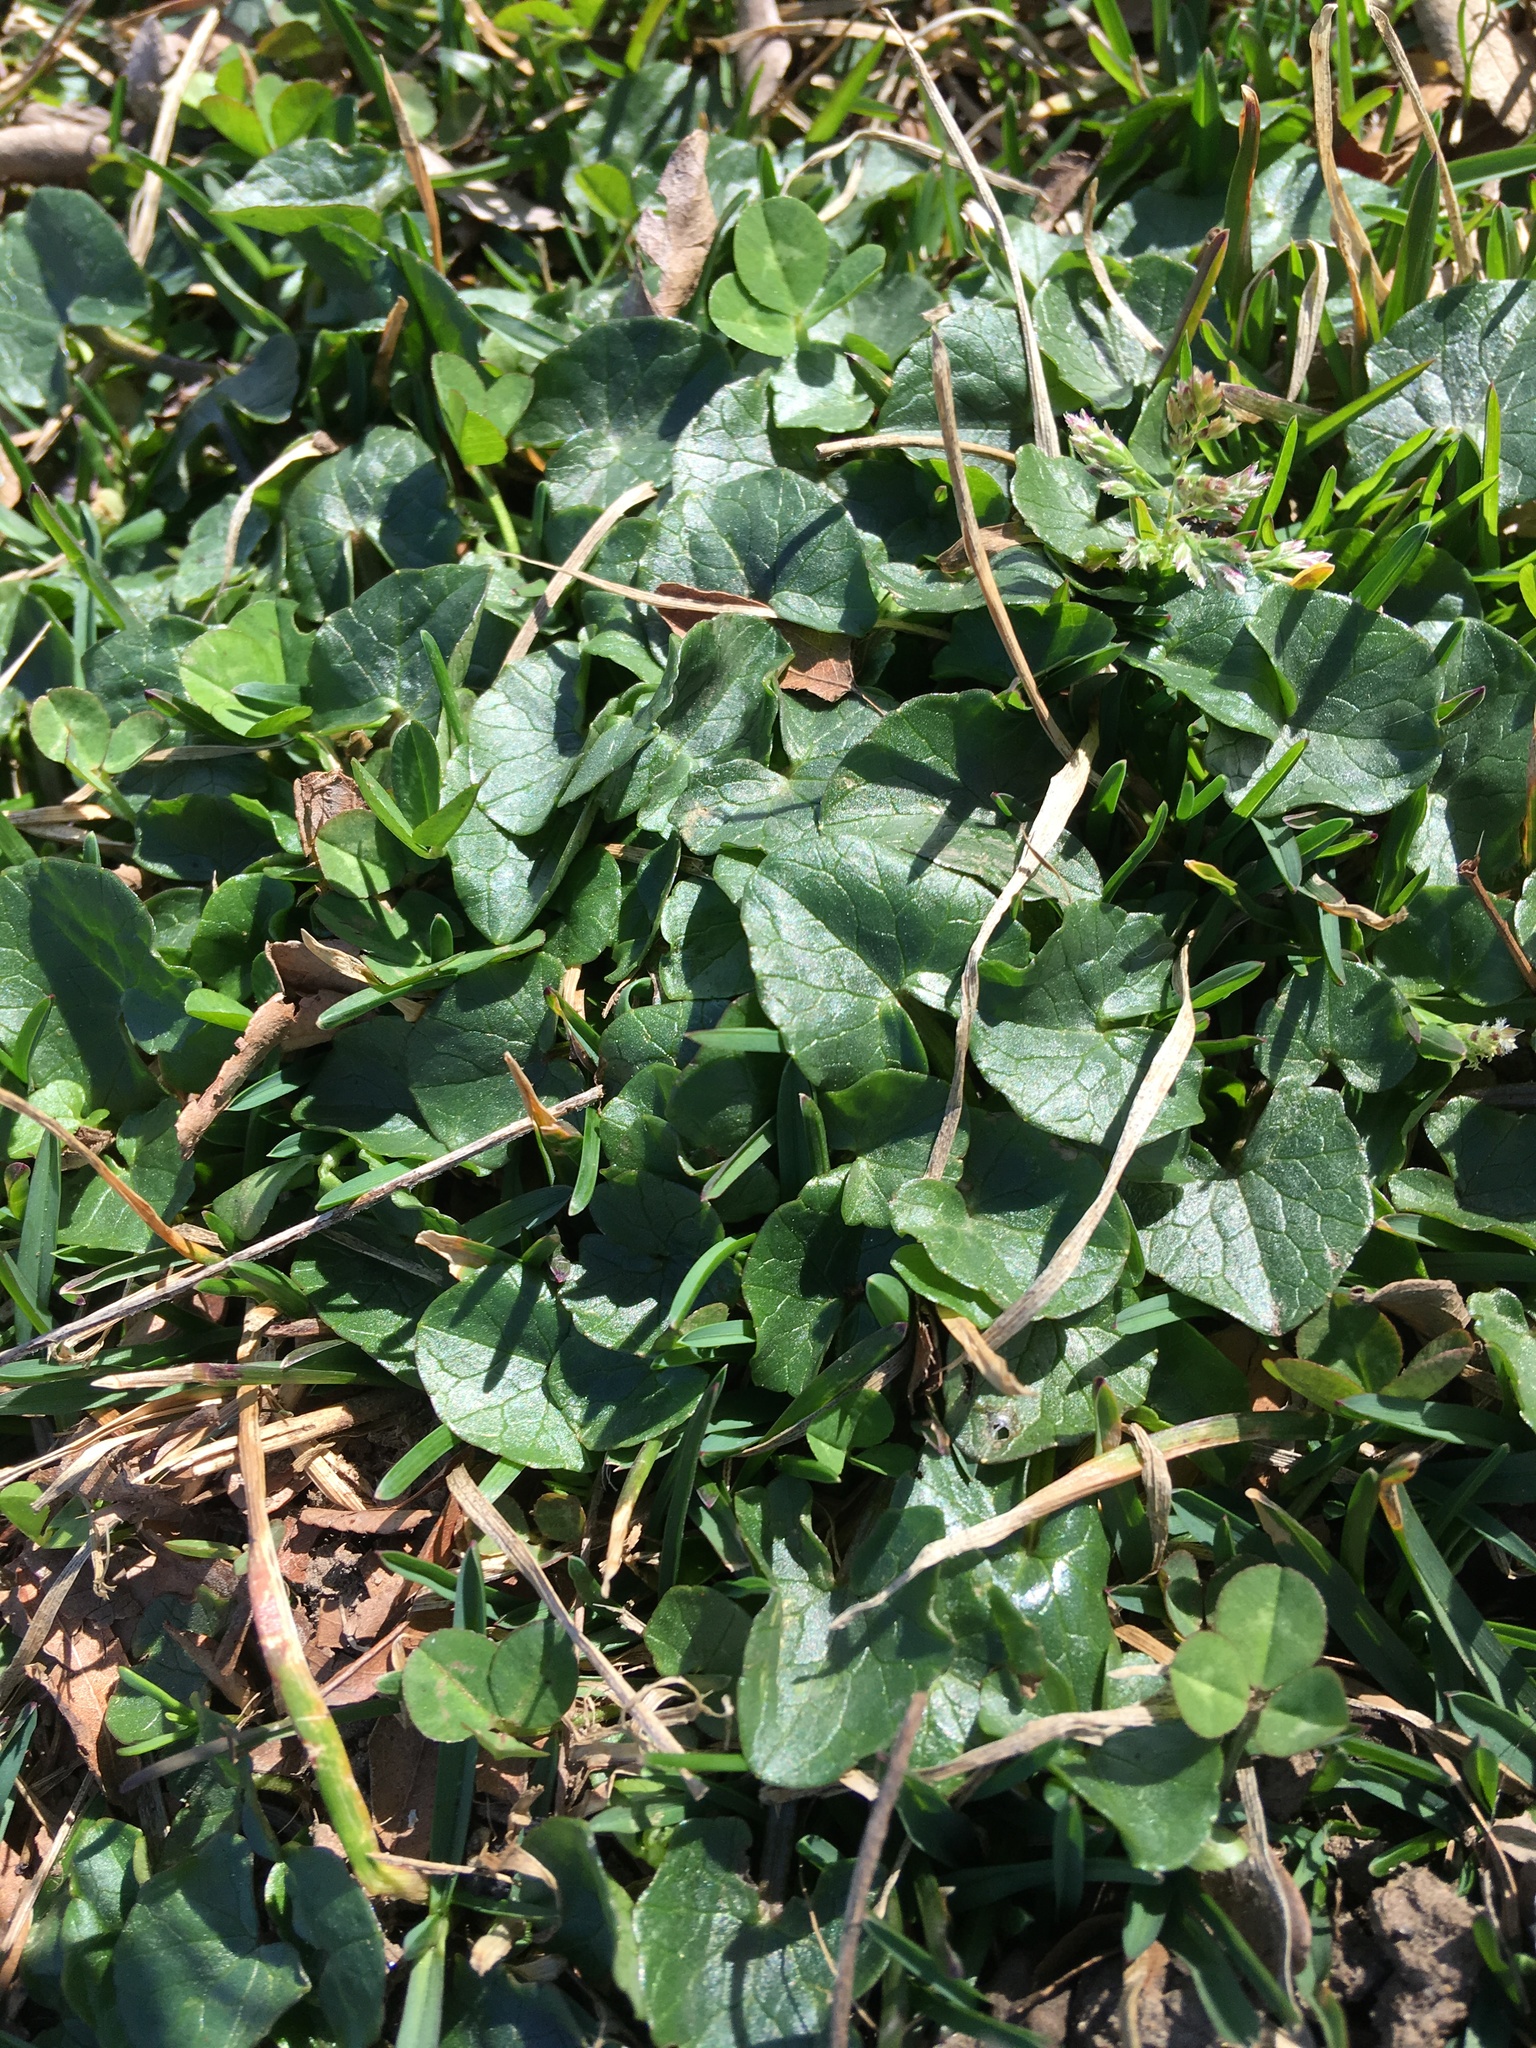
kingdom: Plantae
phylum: Tracheophyta
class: Magnoliopsida
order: Ranunculales
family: Ranunculaceae
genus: Ficaria
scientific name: Ficaria verna
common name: Lesser celandine
